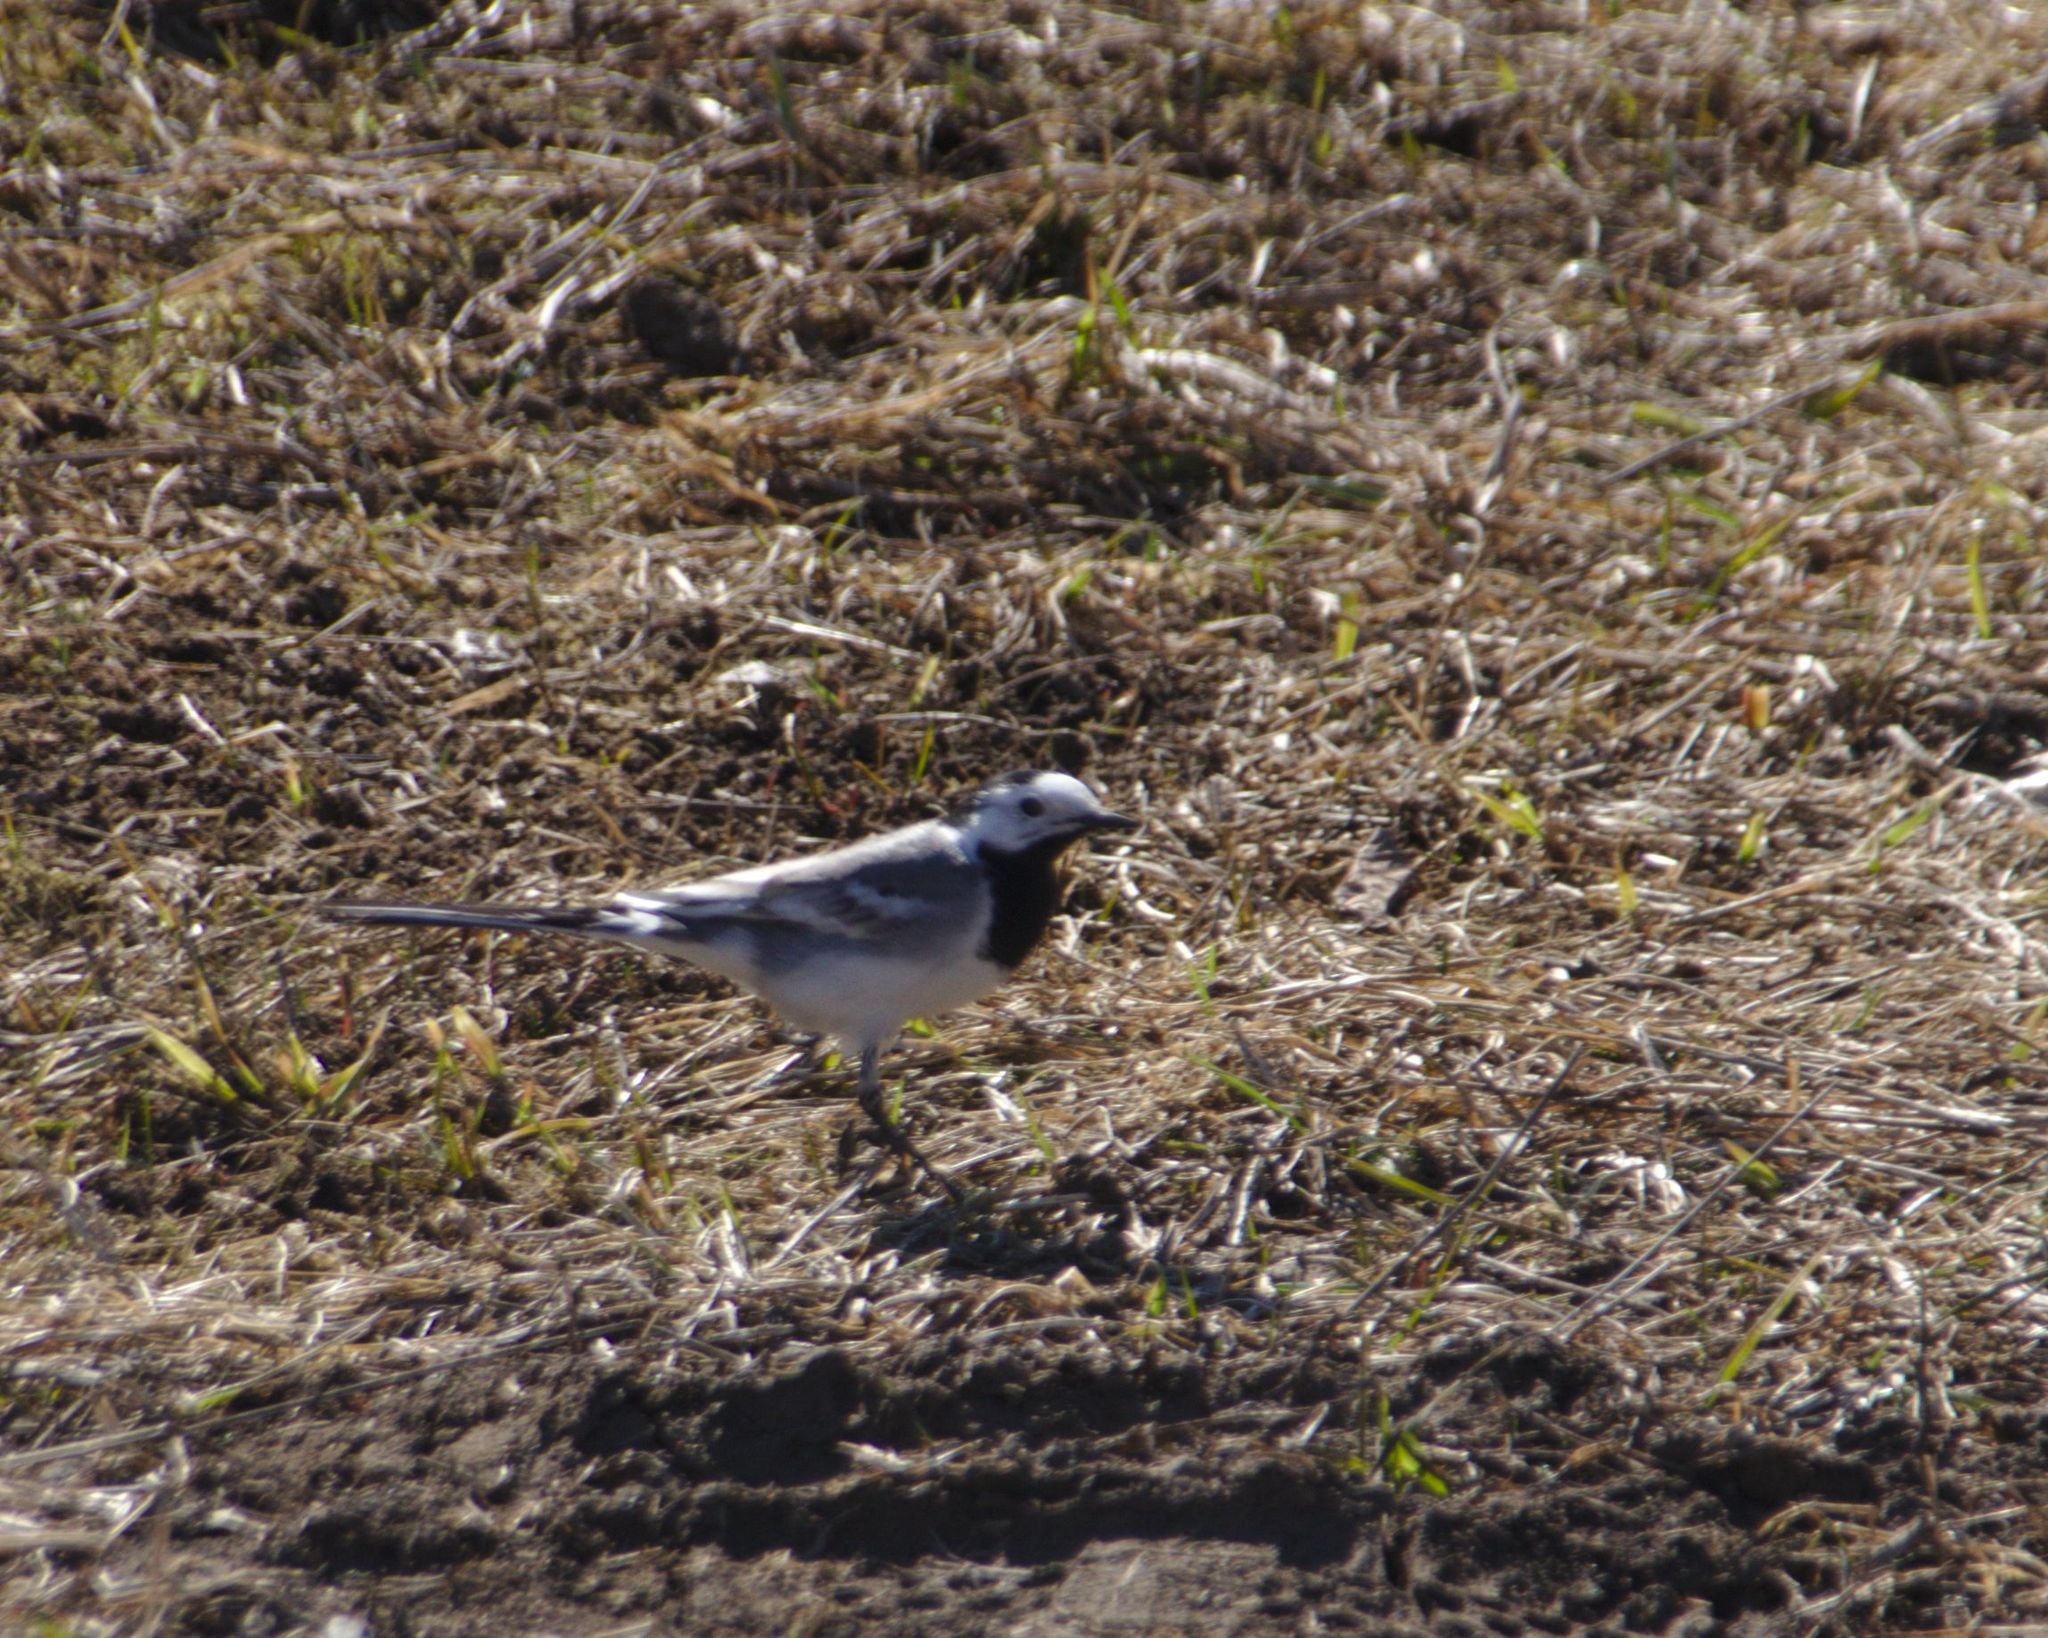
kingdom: Animalia
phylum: Chordata
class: Aves
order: Passeriformes
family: Motacillidae
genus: Motacilla
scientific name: Motacilla alba
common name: White wagtail
